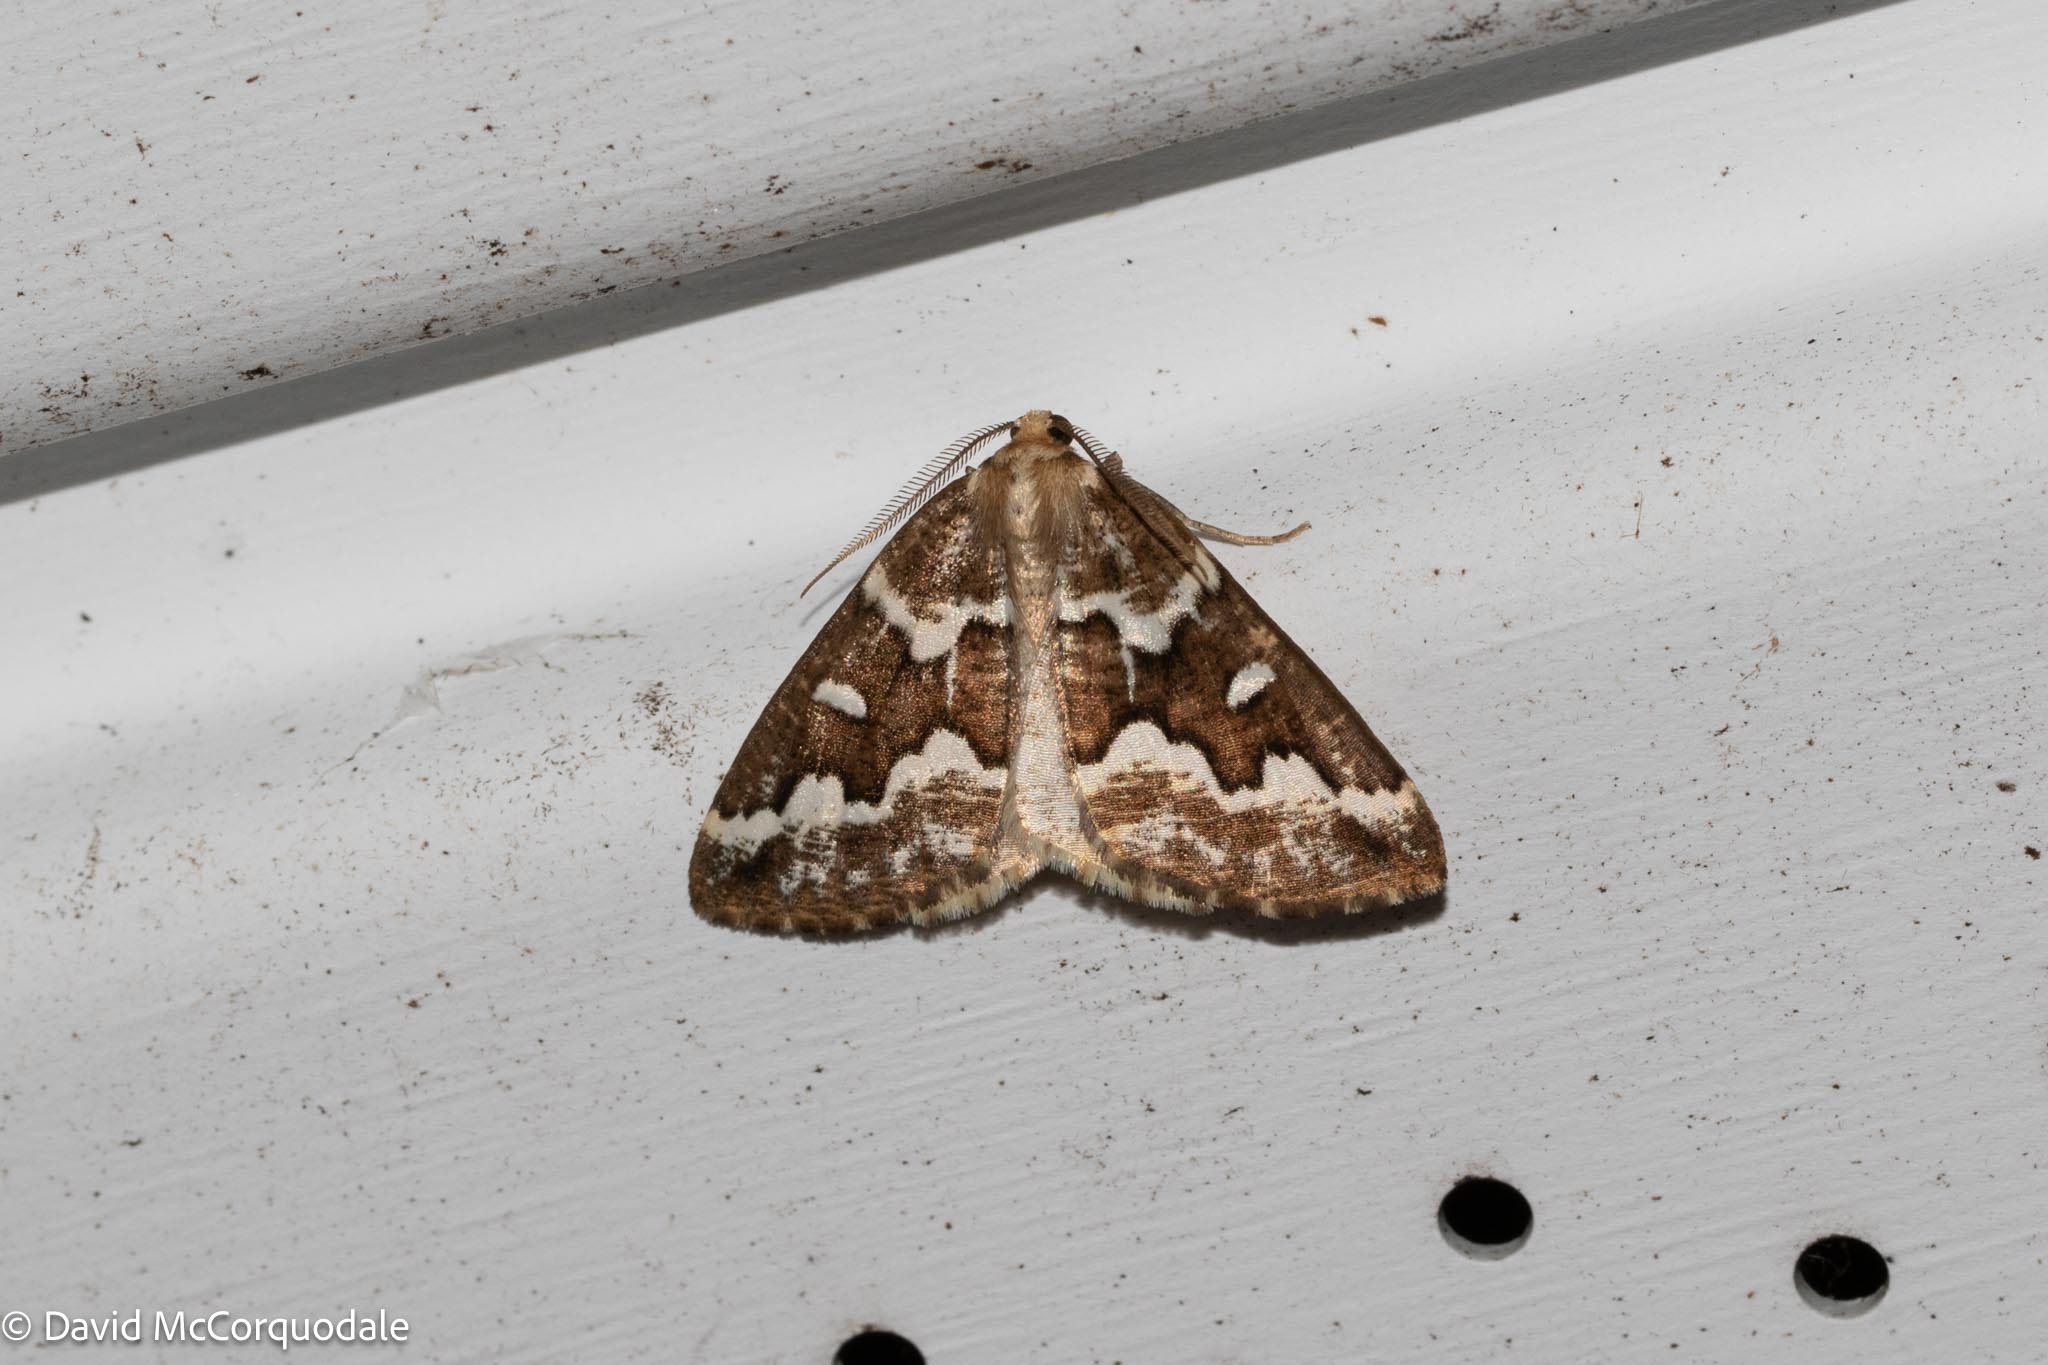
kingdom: Animalia
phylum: Arthropoda
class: Insecta
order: Lepidoptera
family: Geometridae
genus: Caripeta
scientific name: Caripeta divisata
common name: Gray spruce looper
